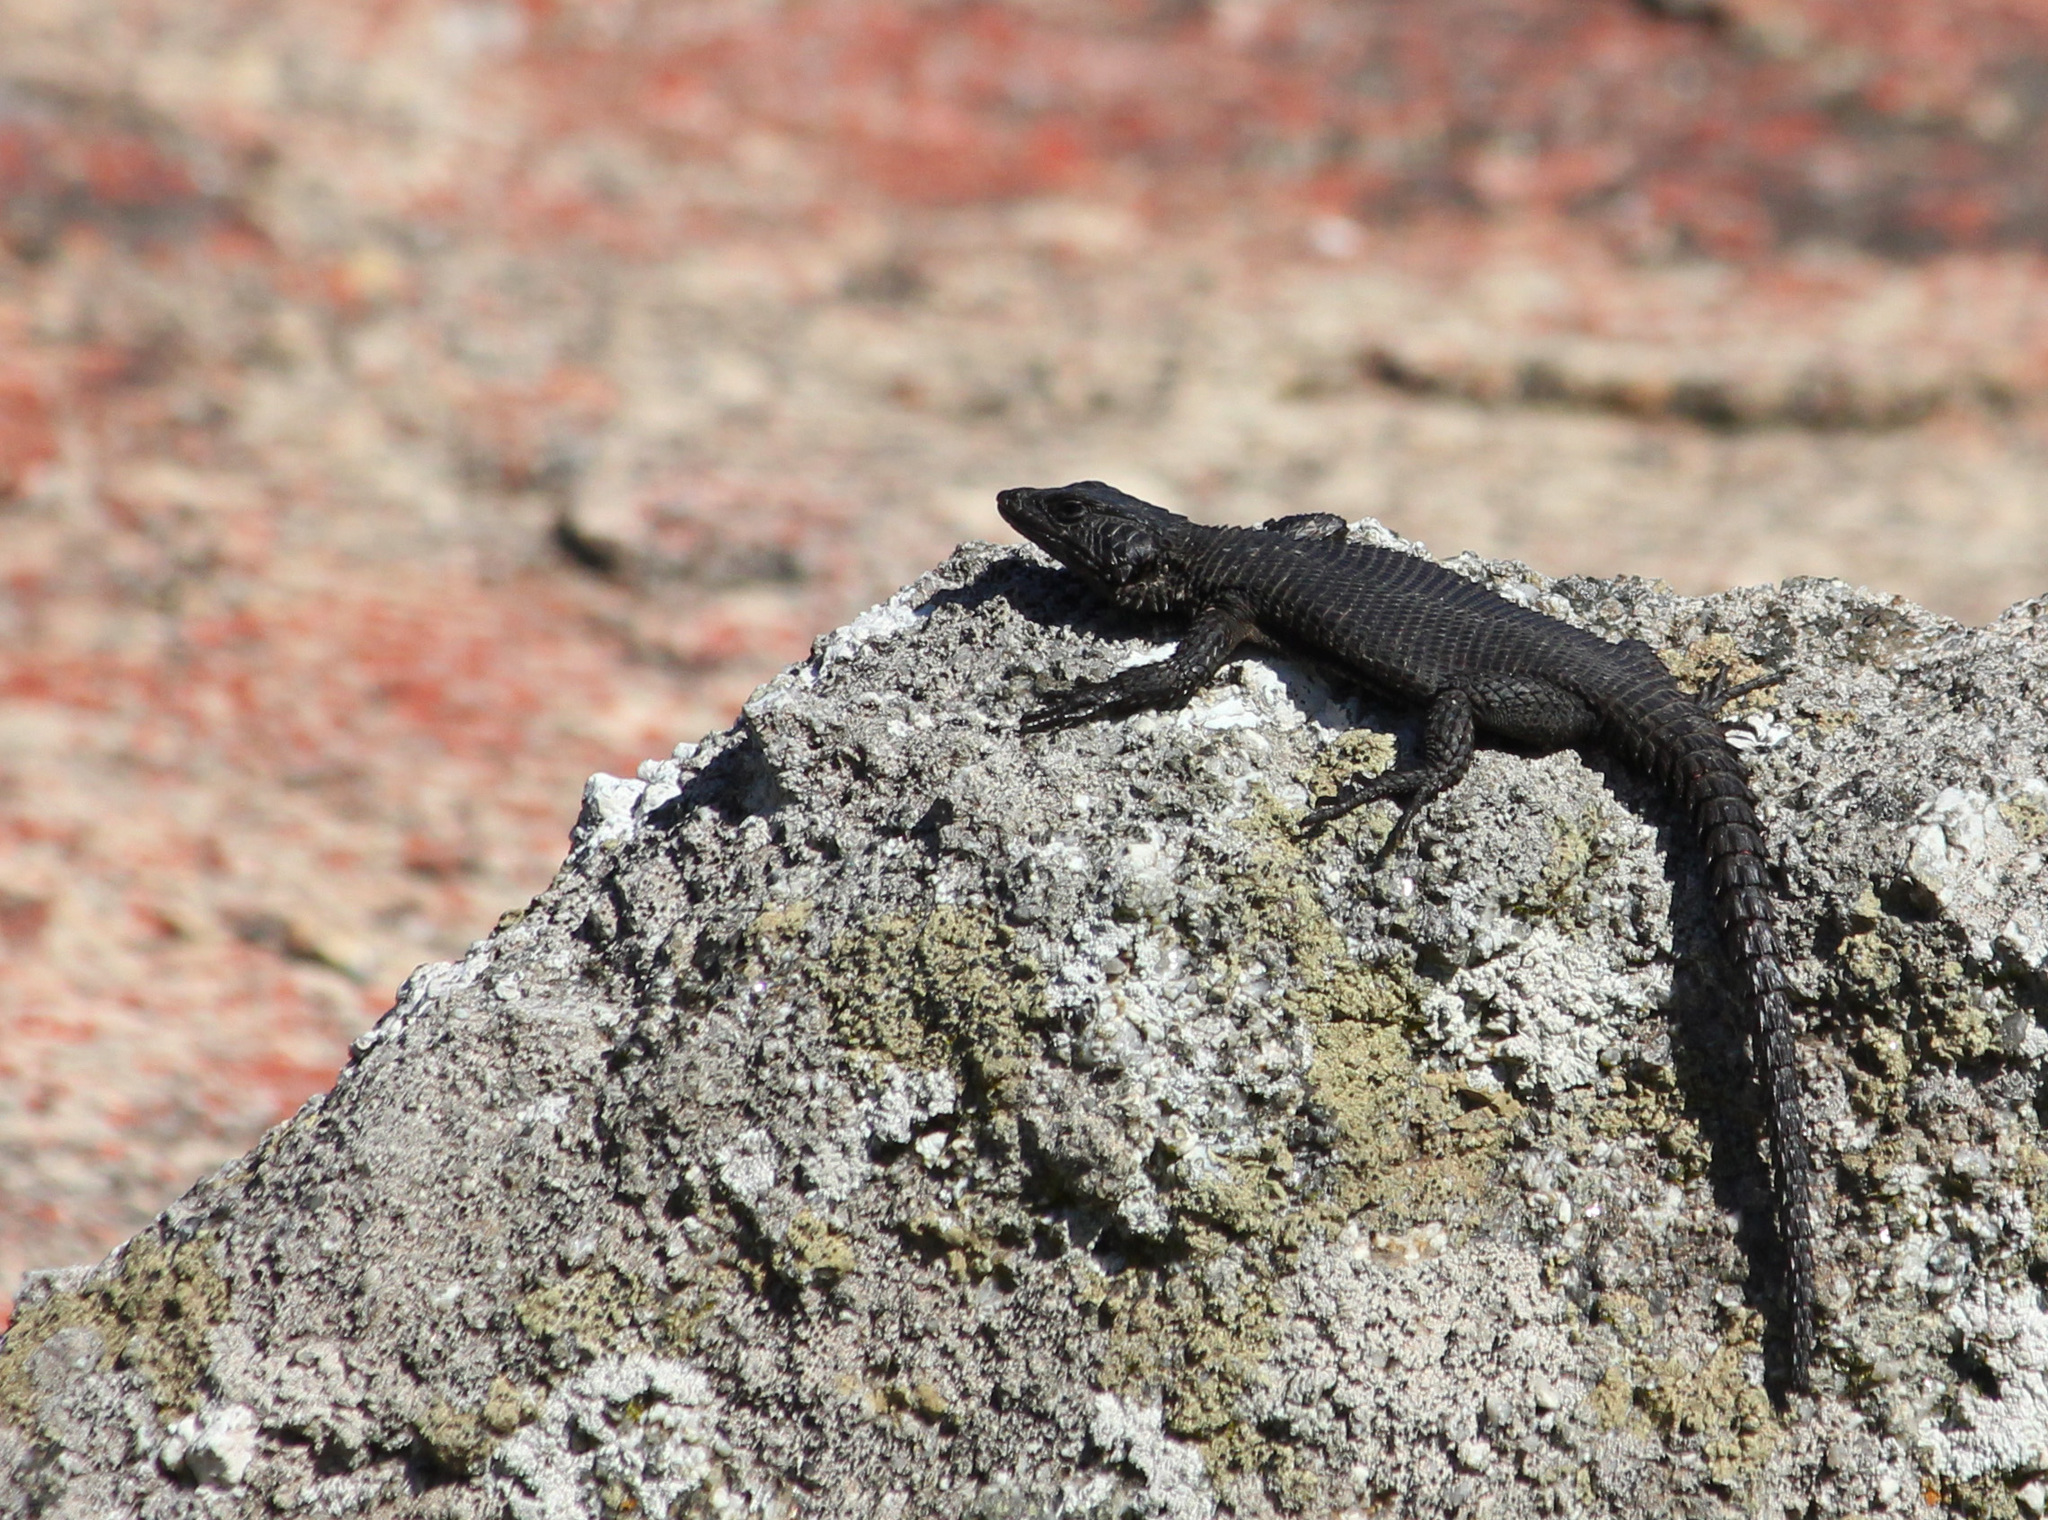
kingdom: Animalia
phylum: Chordata
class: Squamata
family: Cordylidae
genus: Karusasaurus
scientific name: Karusasaurus polyzonus
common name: Karoo girdled lizard
